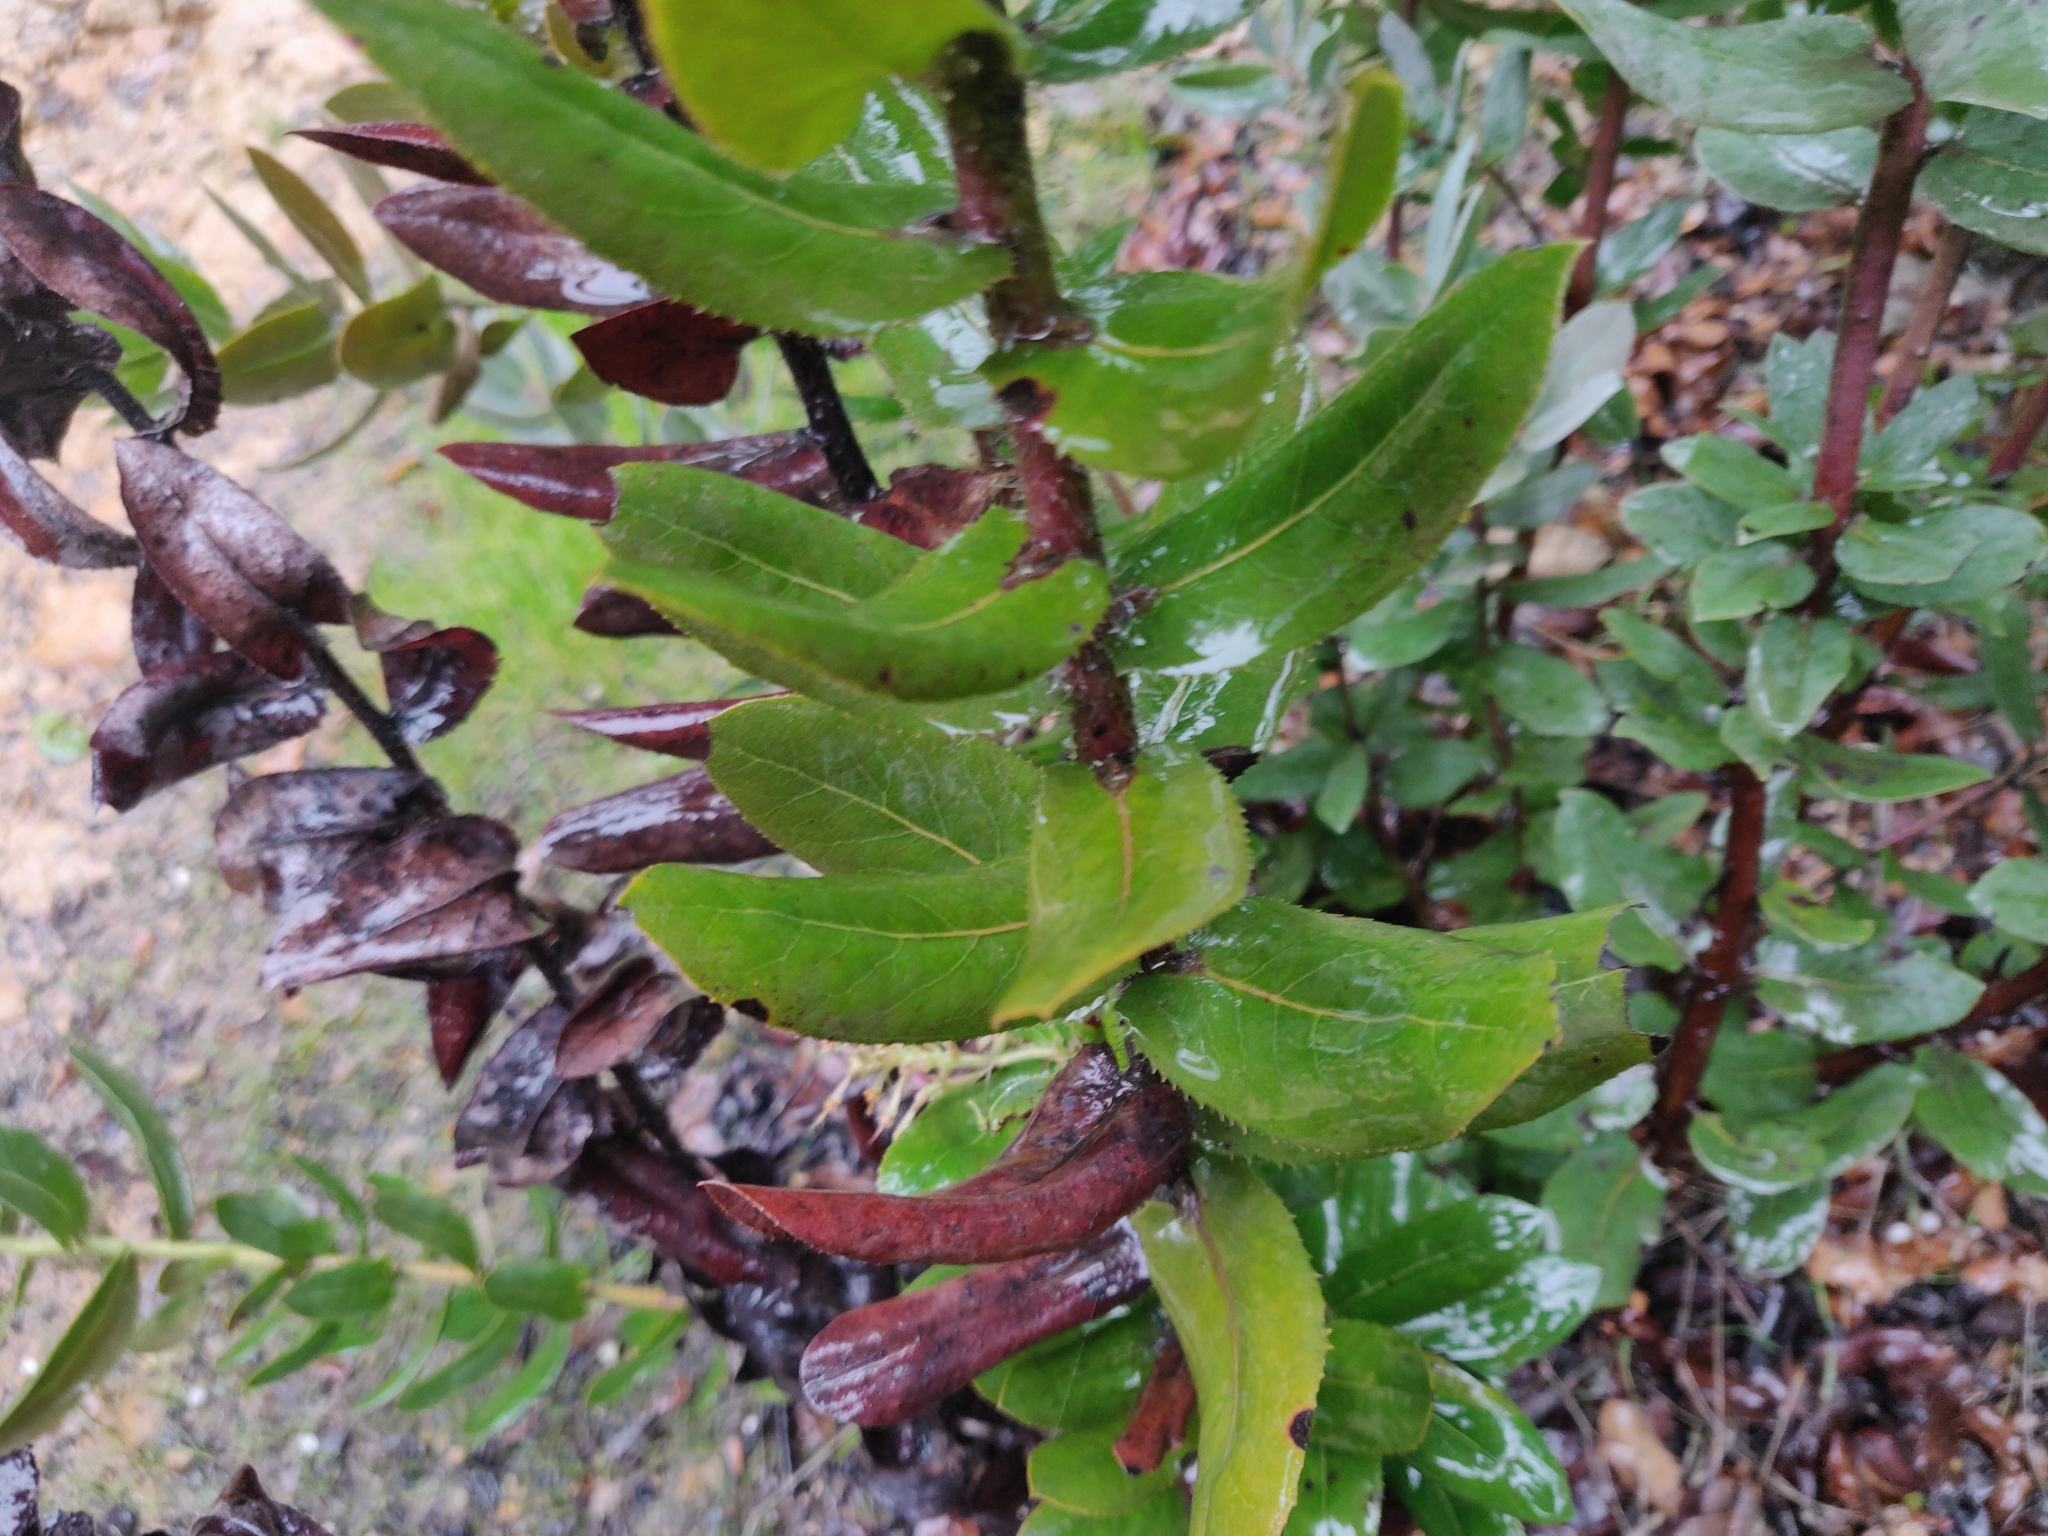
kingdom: Plantae
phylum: Tracheophyta
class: Magnoliopsida
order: Ericales
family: Ericaceae
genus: Arctostaphylos
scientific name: Arctostaphylos andersonii
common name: Santa cruz manzanita
